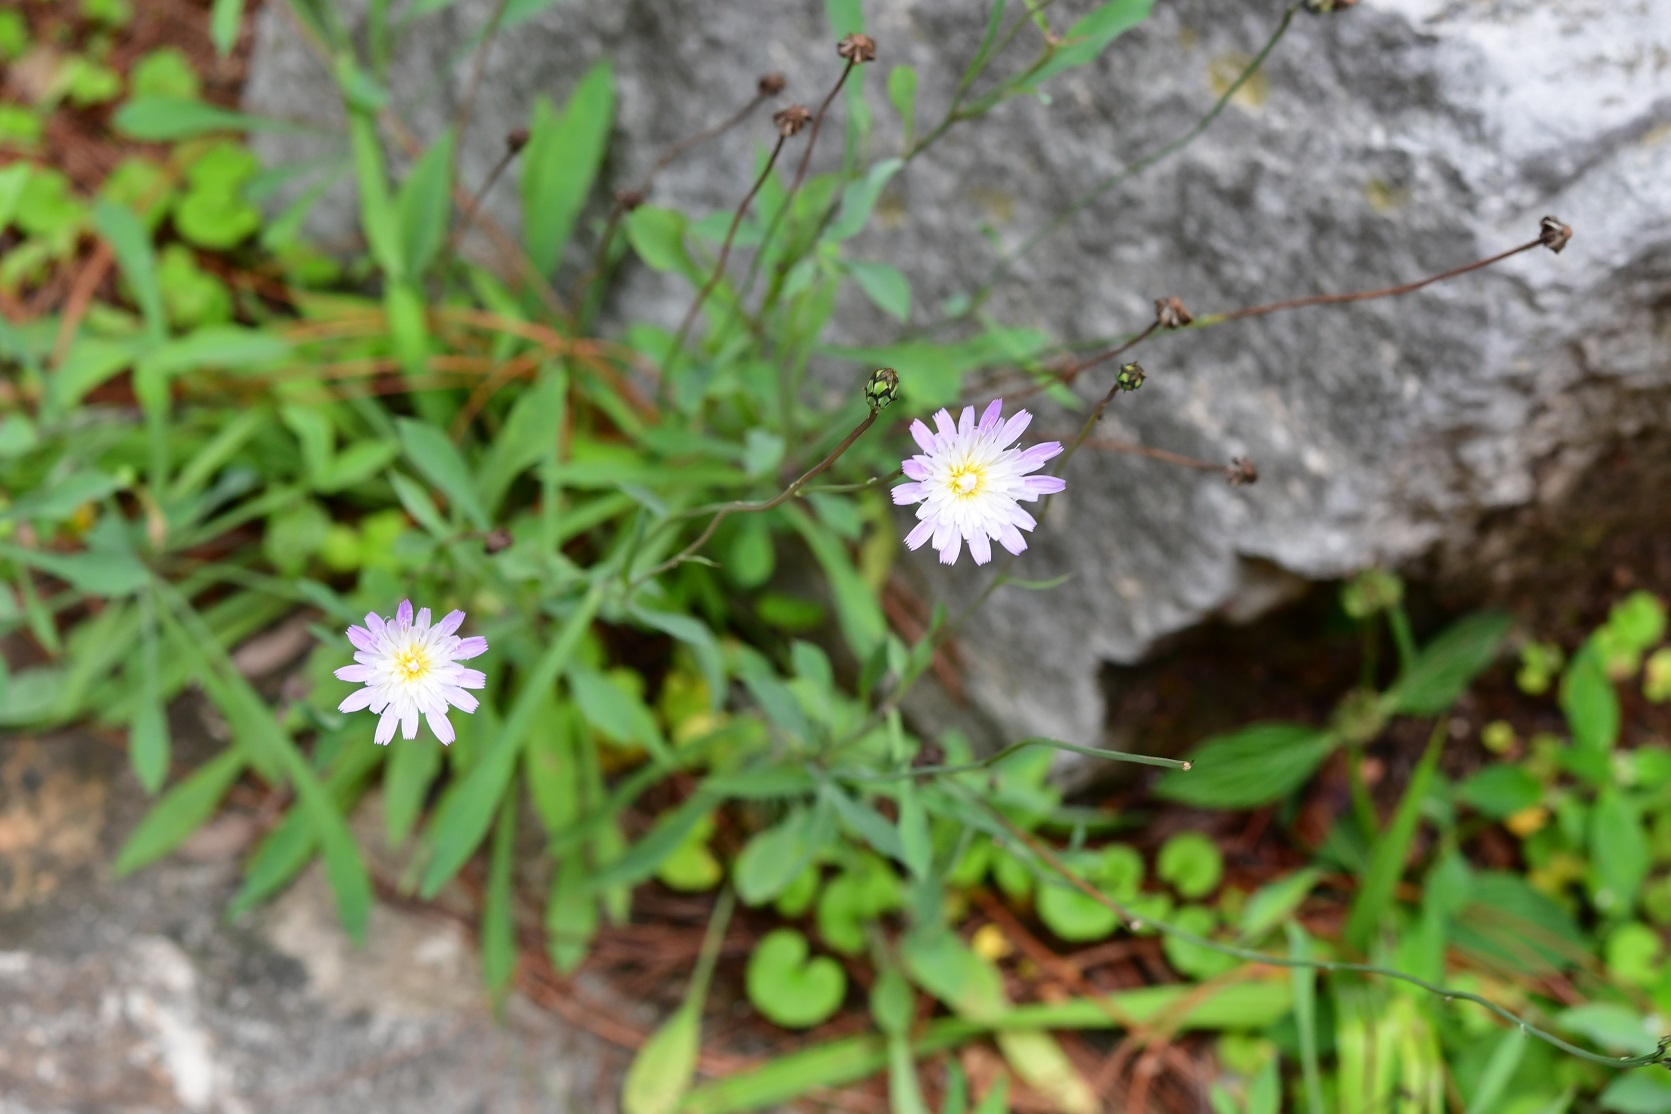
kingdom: Plantae
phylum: Tracheophyta
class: Magnoliopsida
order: Asterales
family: Asteraceae
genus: Pinaropappus
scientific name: Pinaropappus spathulatus
